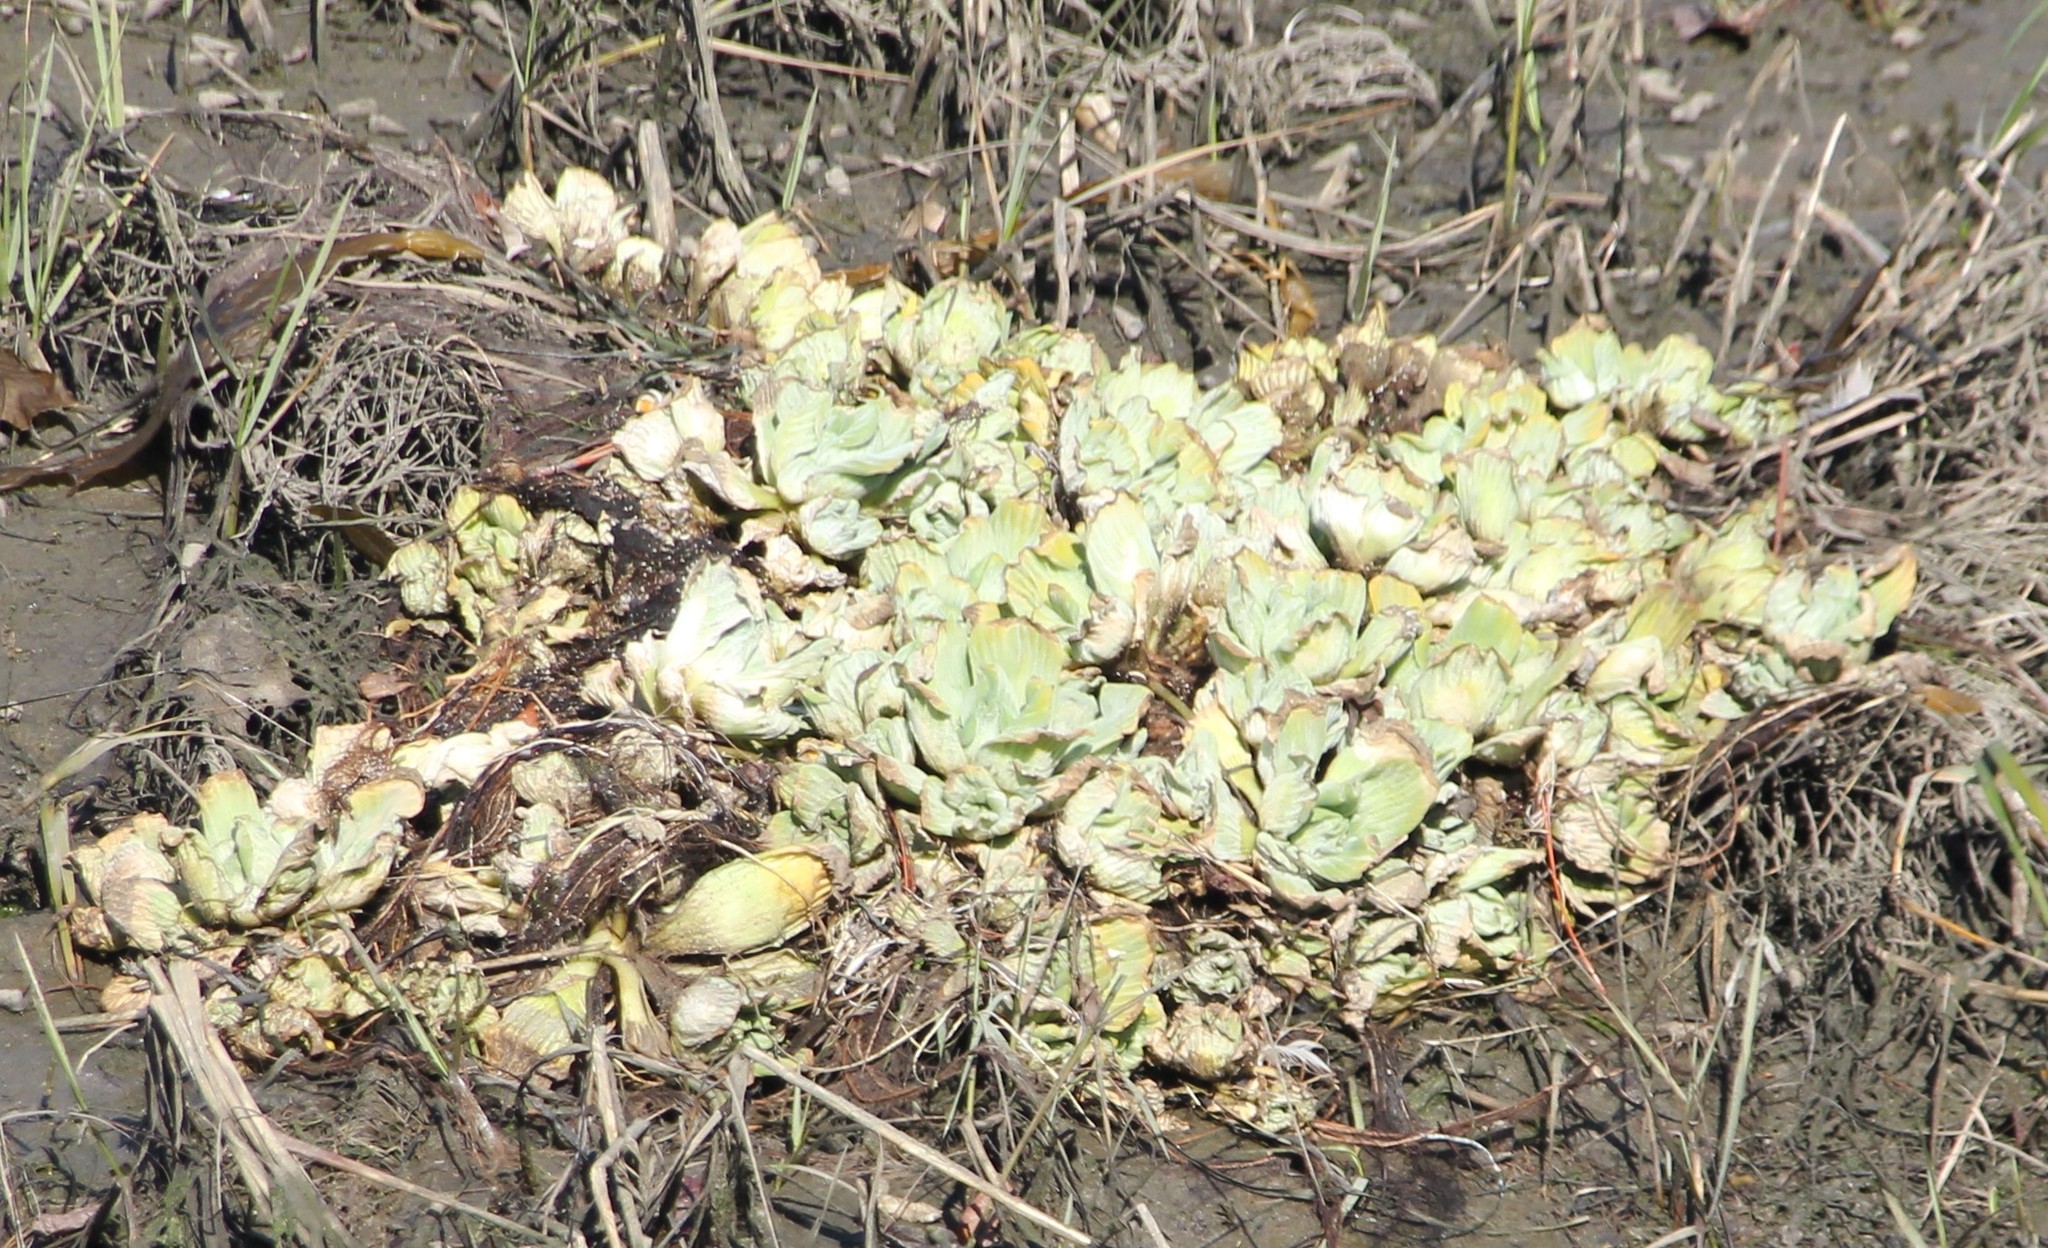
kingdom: Plantae
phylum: Tracheophyta
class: Liliopsida
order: Alismatales
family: Araceae
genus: Pistia
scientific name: Pistia stratiotes
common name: Water lettuce
